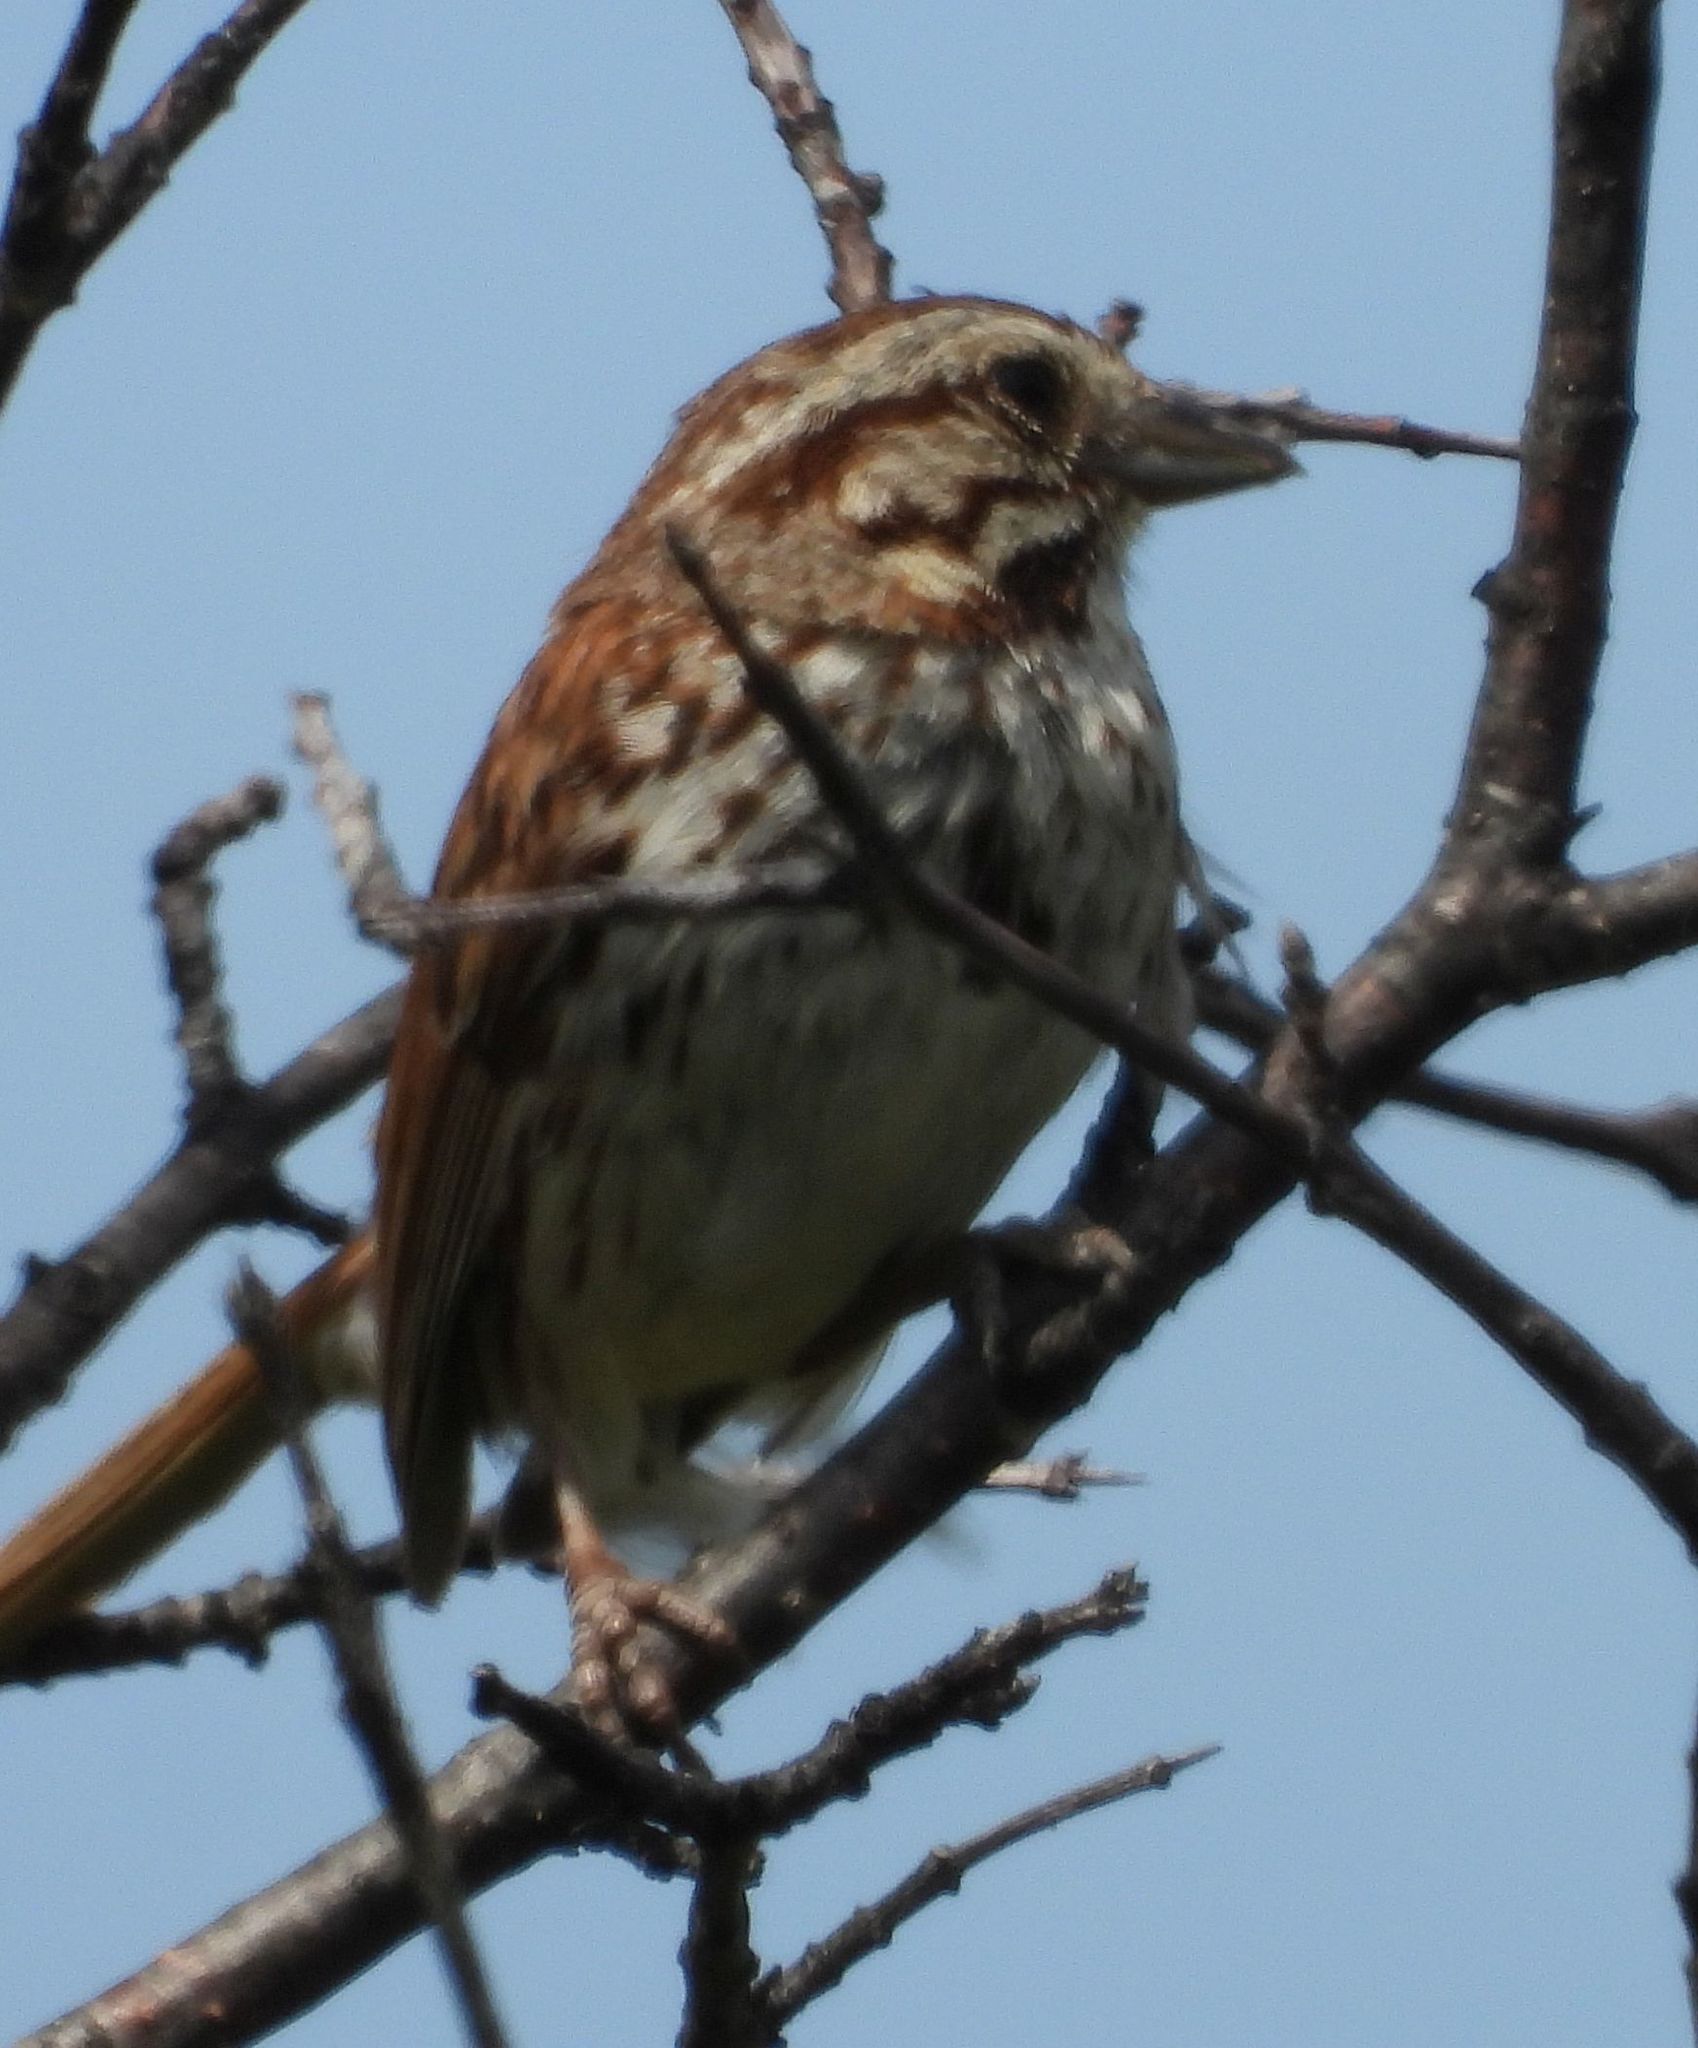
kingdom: Animalia
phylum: Chordata
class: Aves
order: Passeriformes
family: Passerellidae
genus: Melospiza
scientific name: Melospiza melodia
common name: Song sparrow
